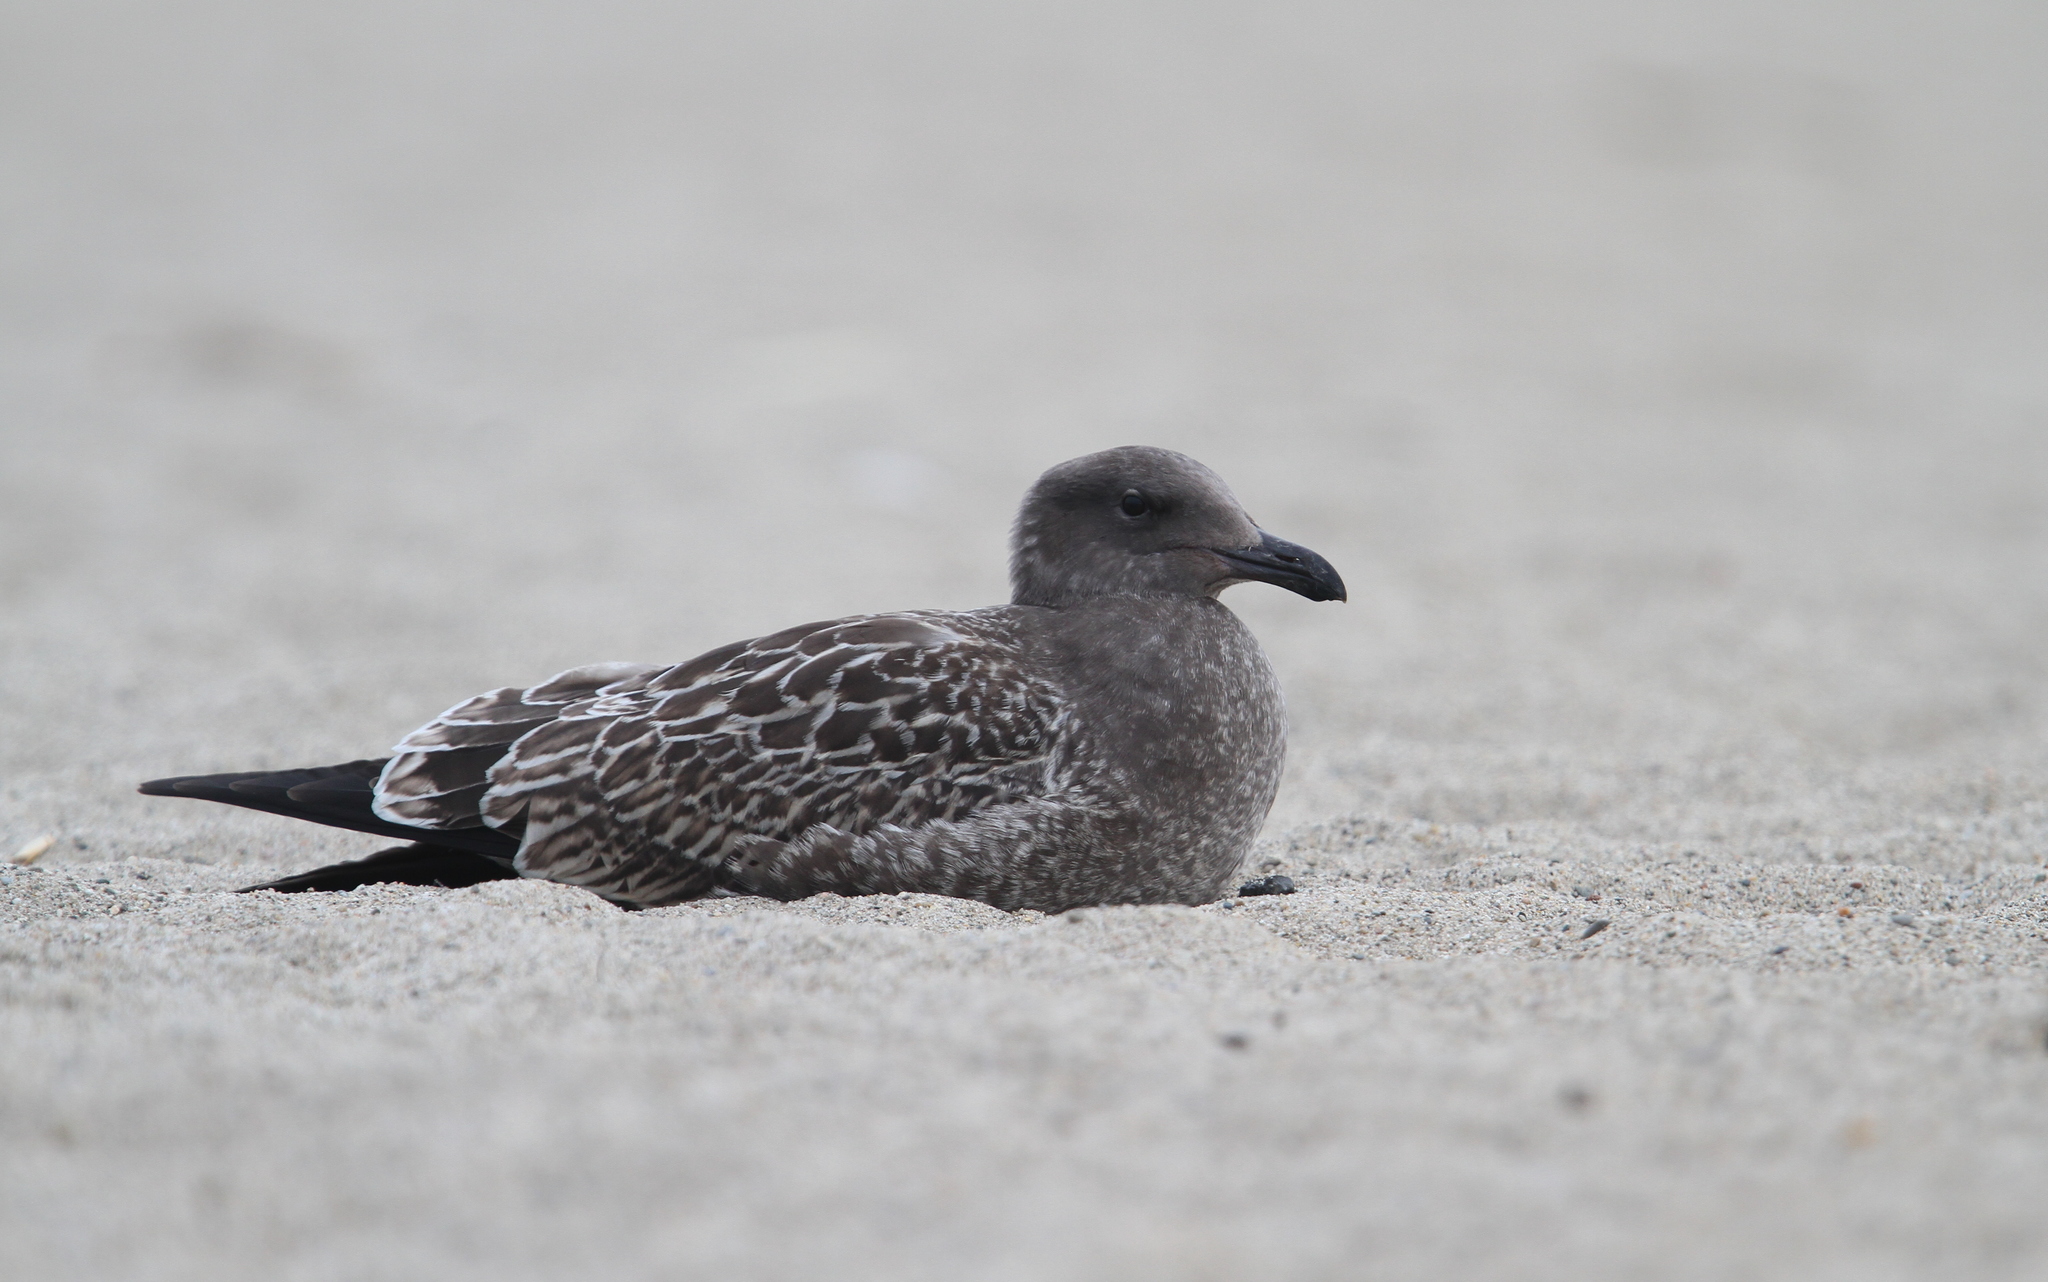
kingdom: Animalia
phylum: Chordata
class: Aves
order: Charadriiformes
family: Laridae
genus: Larus
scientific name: Larus occidentalis
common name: Western gull
